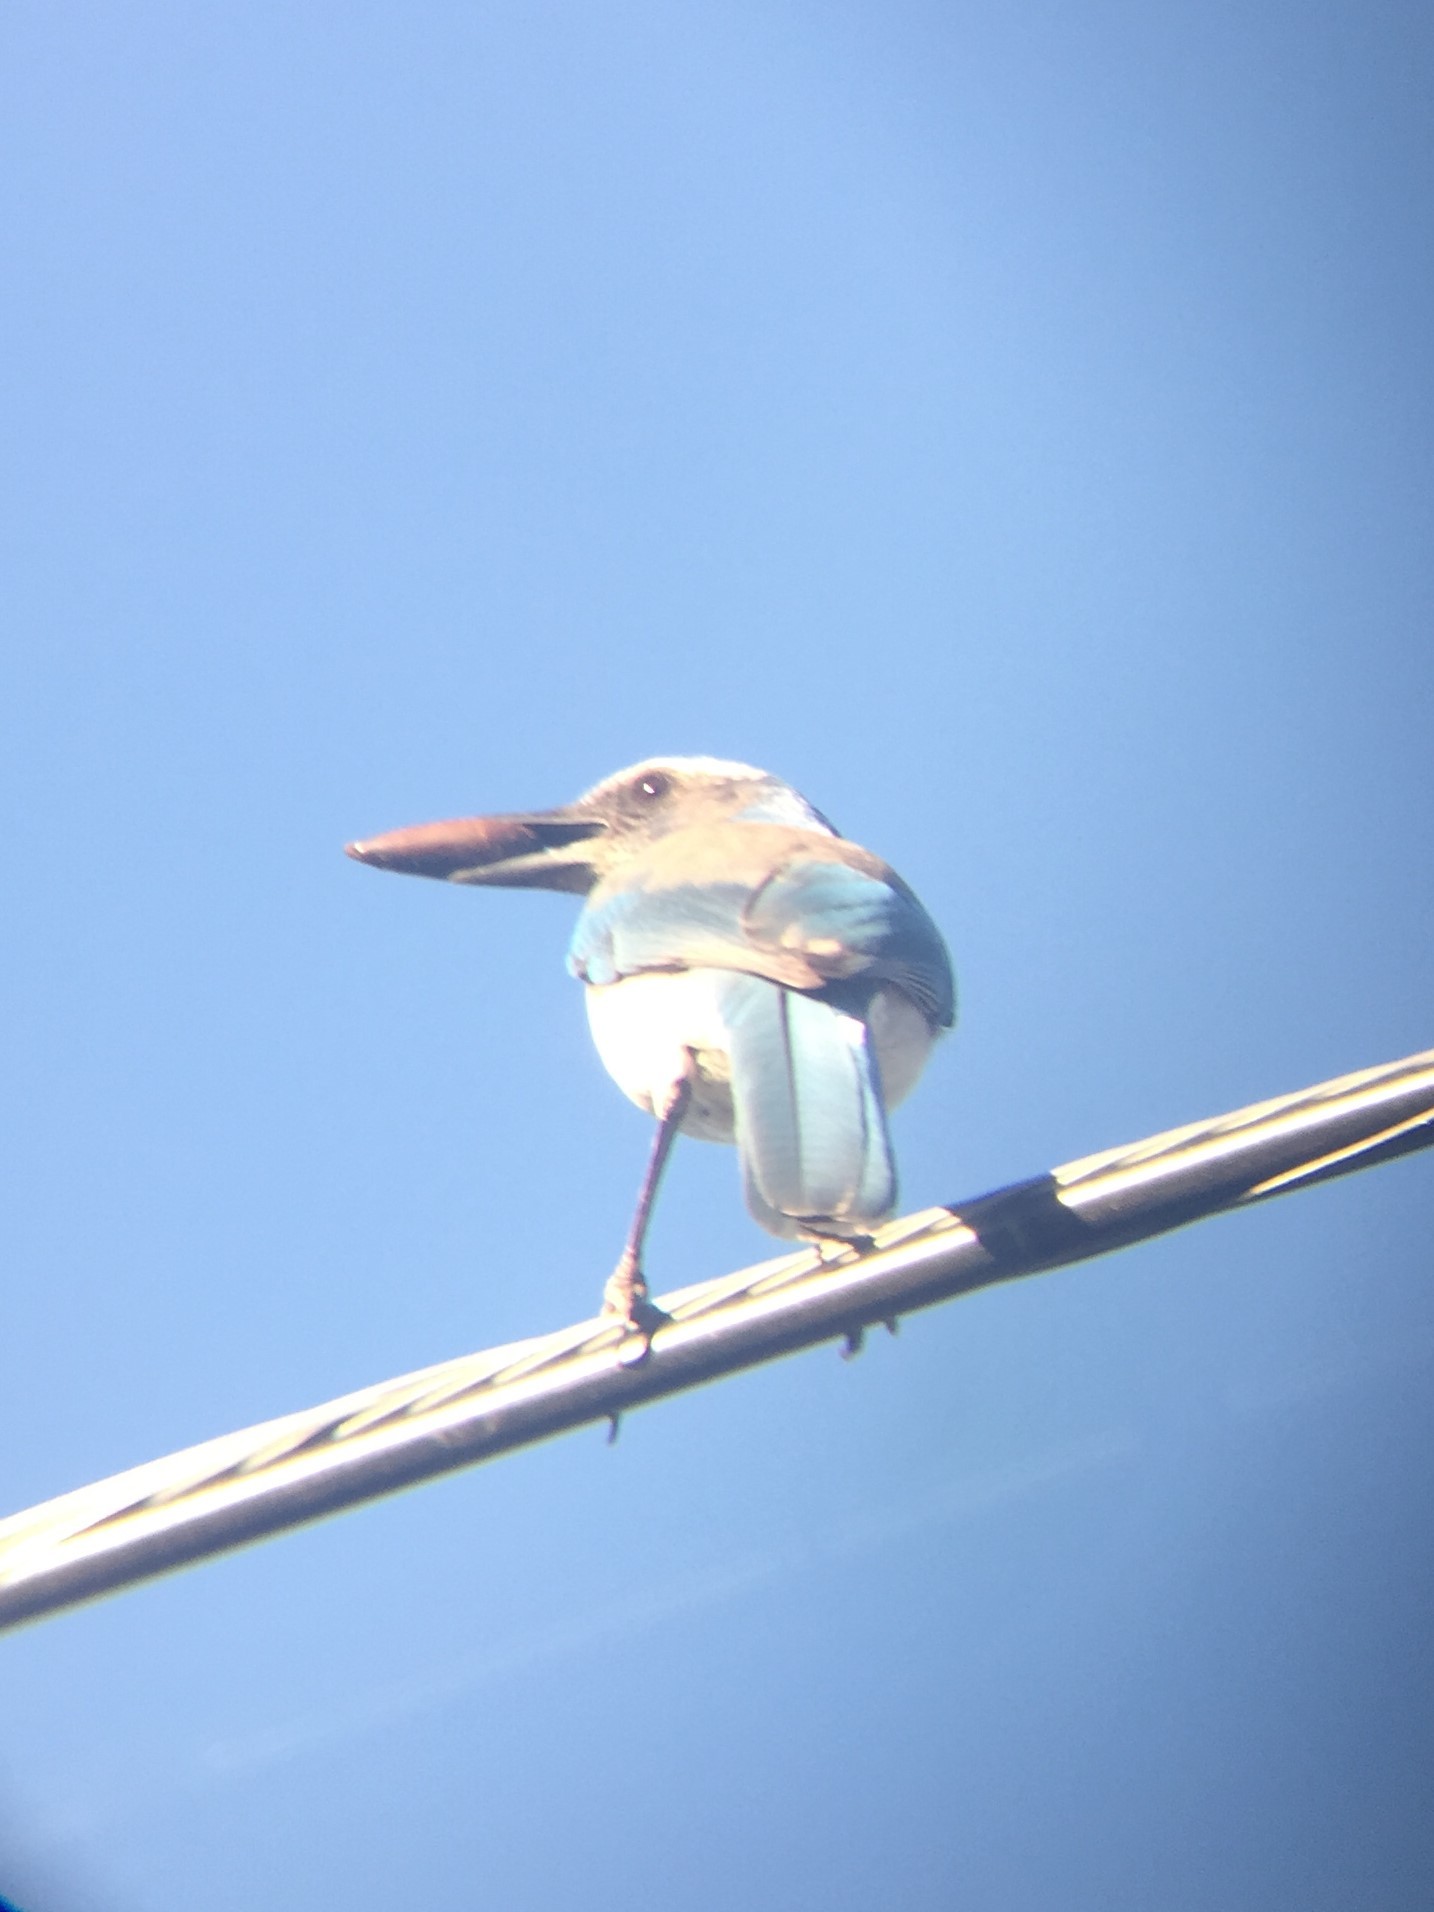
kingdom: Animalia
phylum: Chordata
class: Aves
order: Passeriformes
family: Corvidae
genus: Aphelocoma
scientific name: Aphelocoma californica
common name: California scrub-jay
